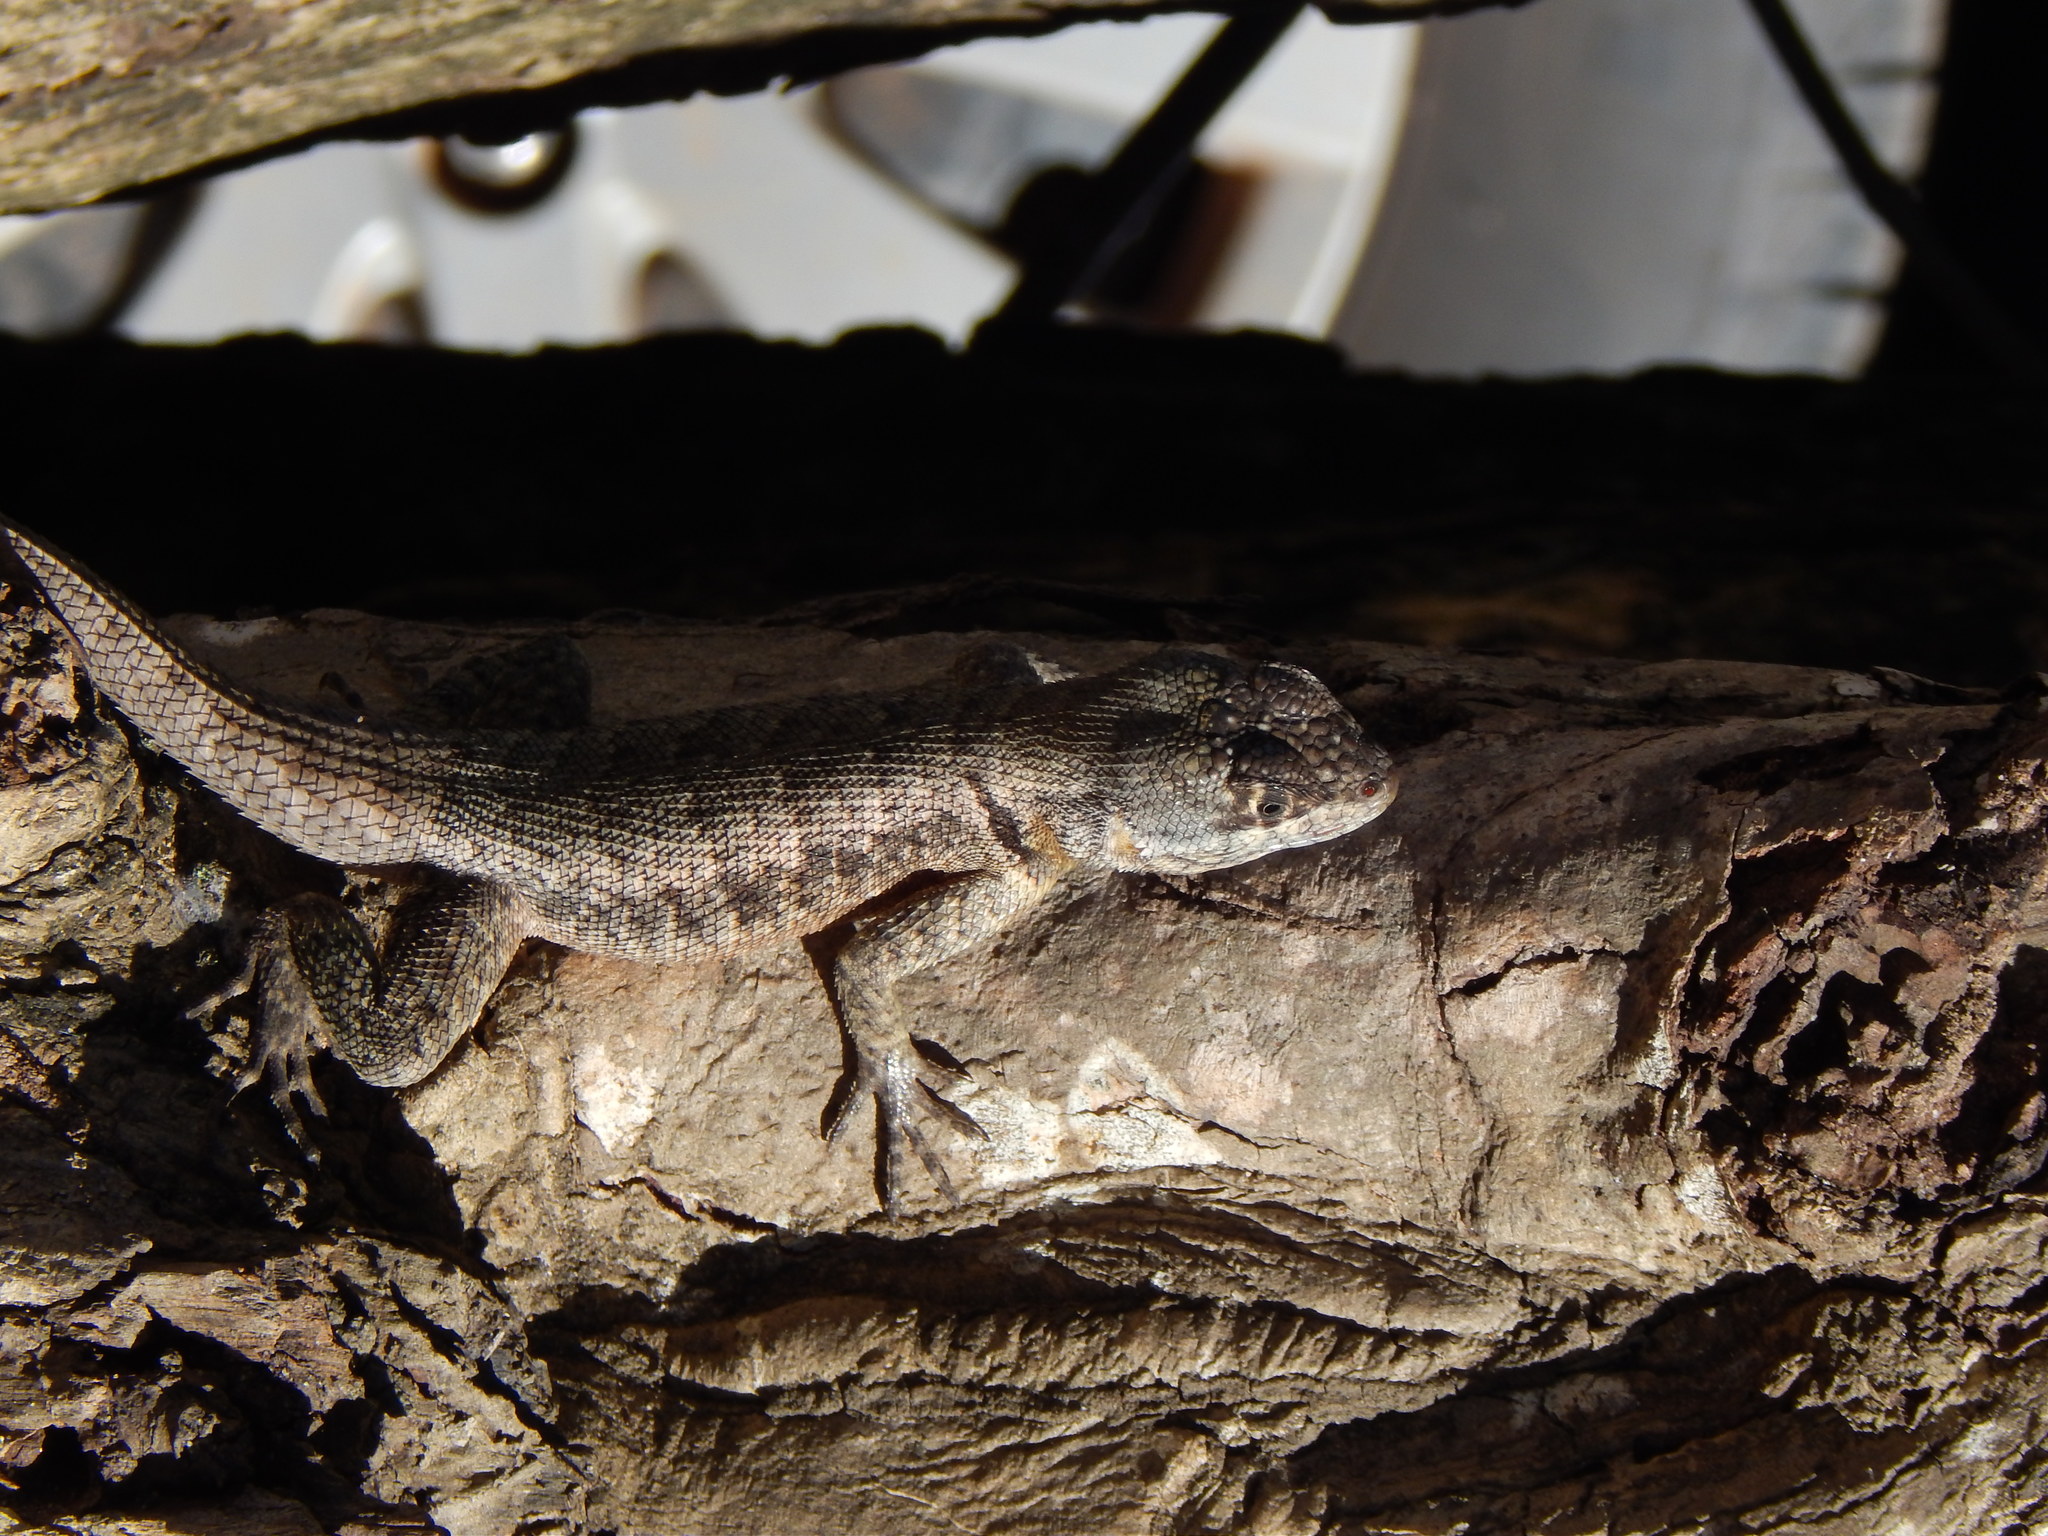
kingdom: Animalia
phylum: Chordata
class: Squamata
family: Tropiduridae
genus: Tropidurus
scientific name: Tropidurus hispidus
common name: Peters' lava lizard
